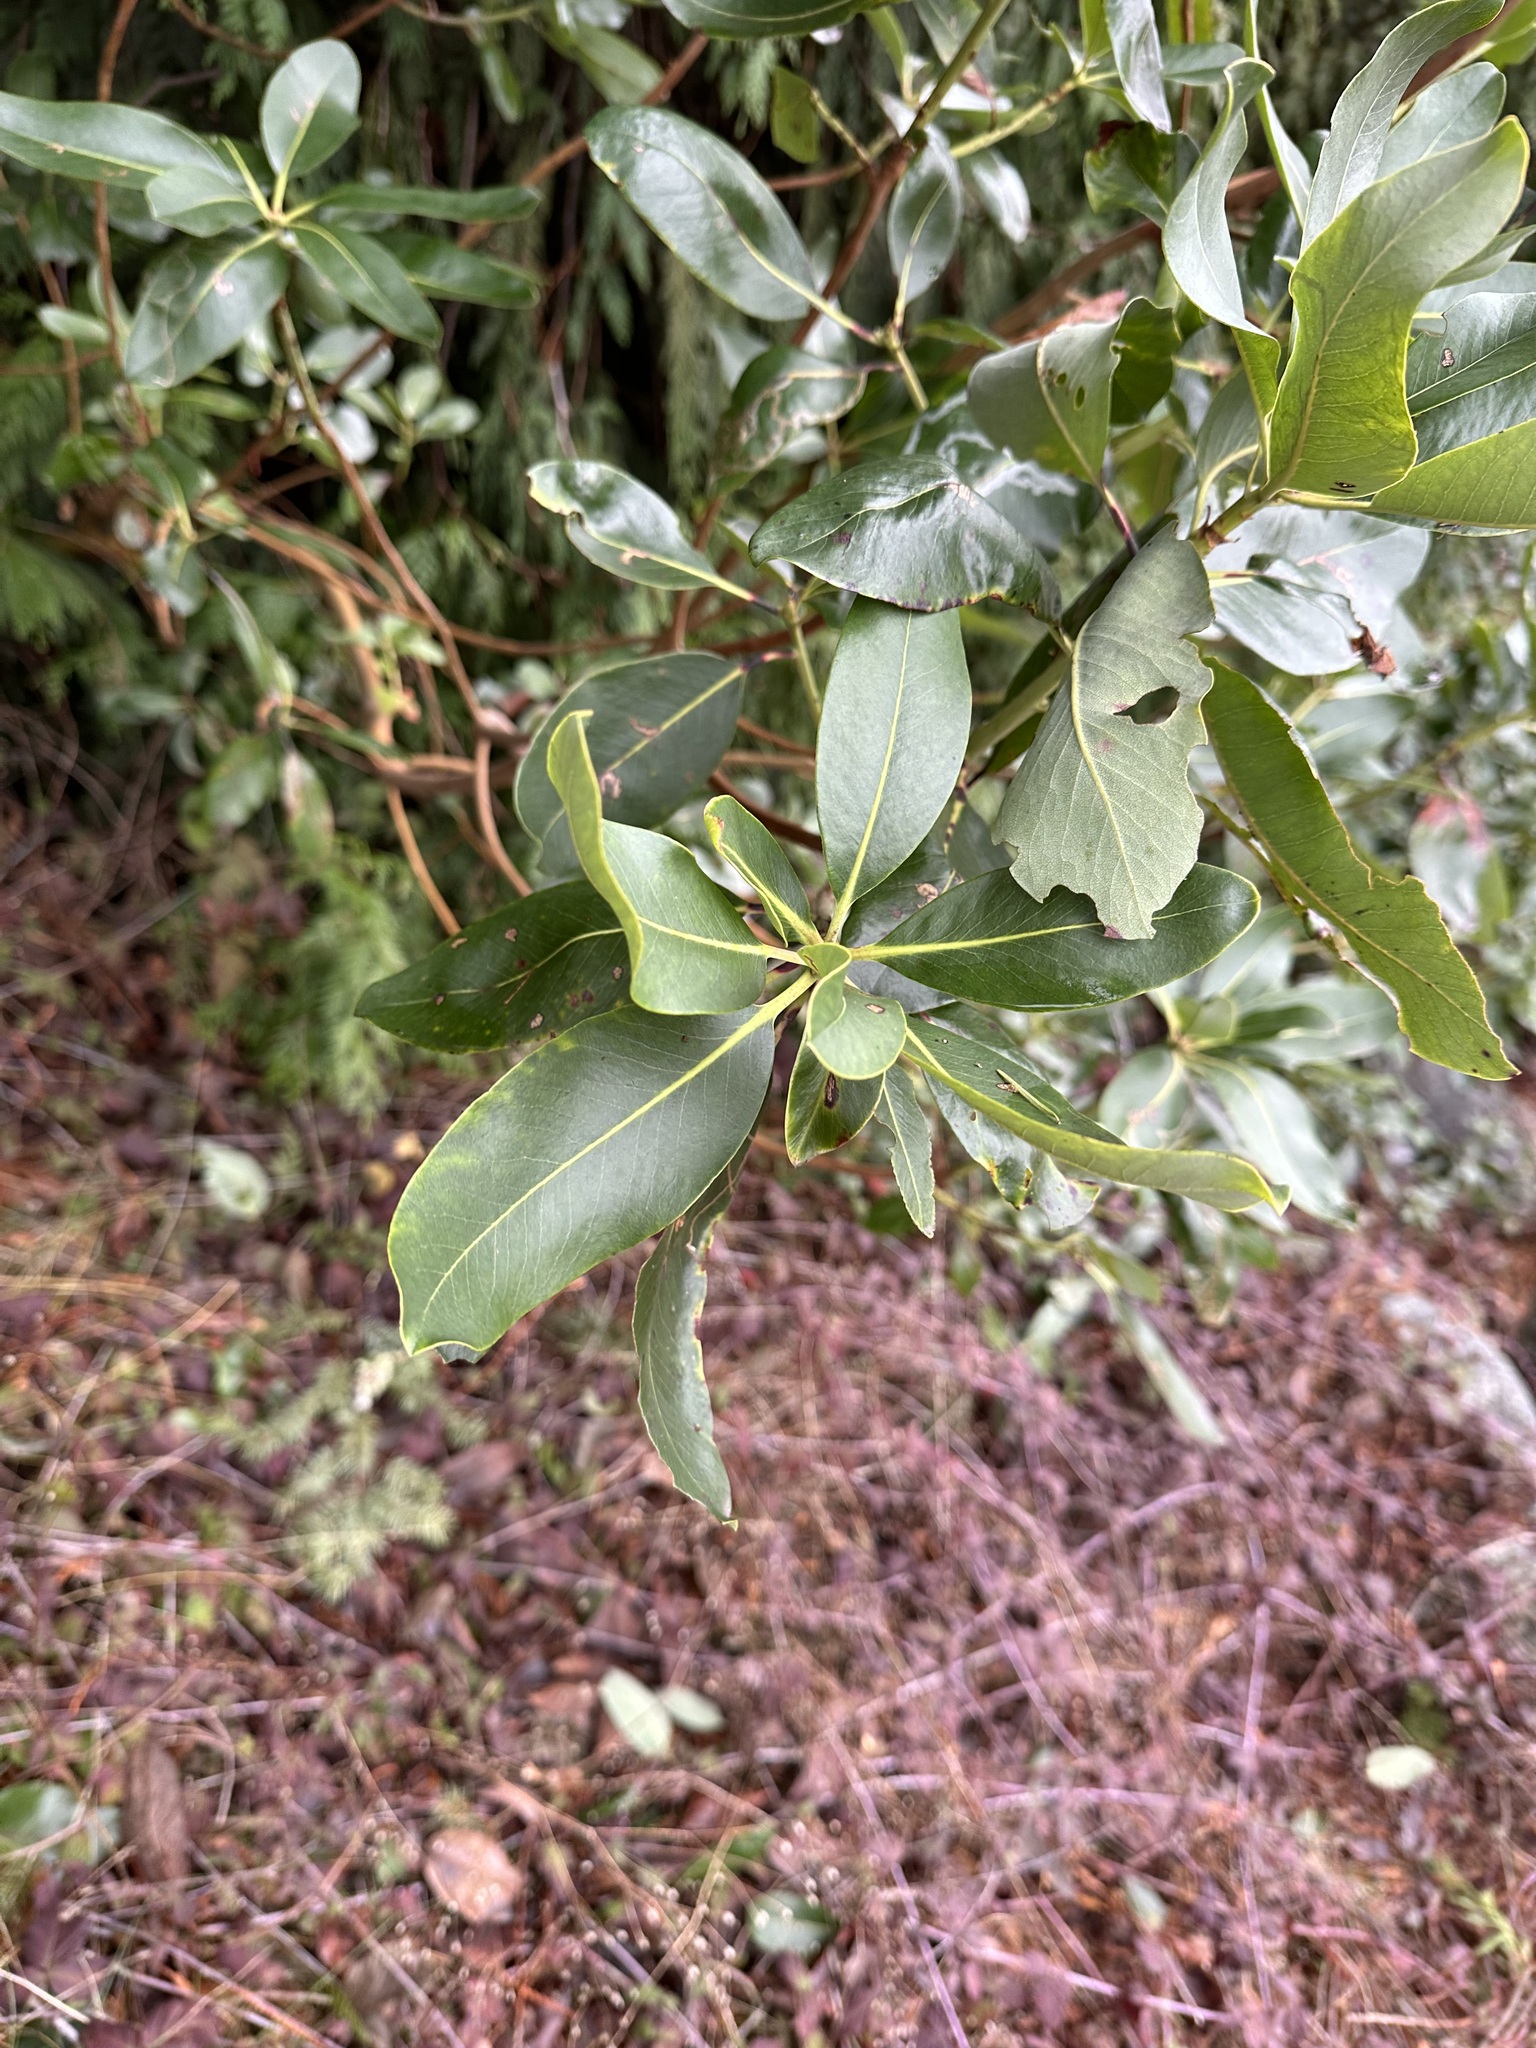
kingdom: Plantae
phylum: Tracheophyta
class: Magnoliopsida
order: Ericales
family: Ericaceae
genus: Arbutus
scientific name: Arbutus menziesii
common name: Pacific madrone
